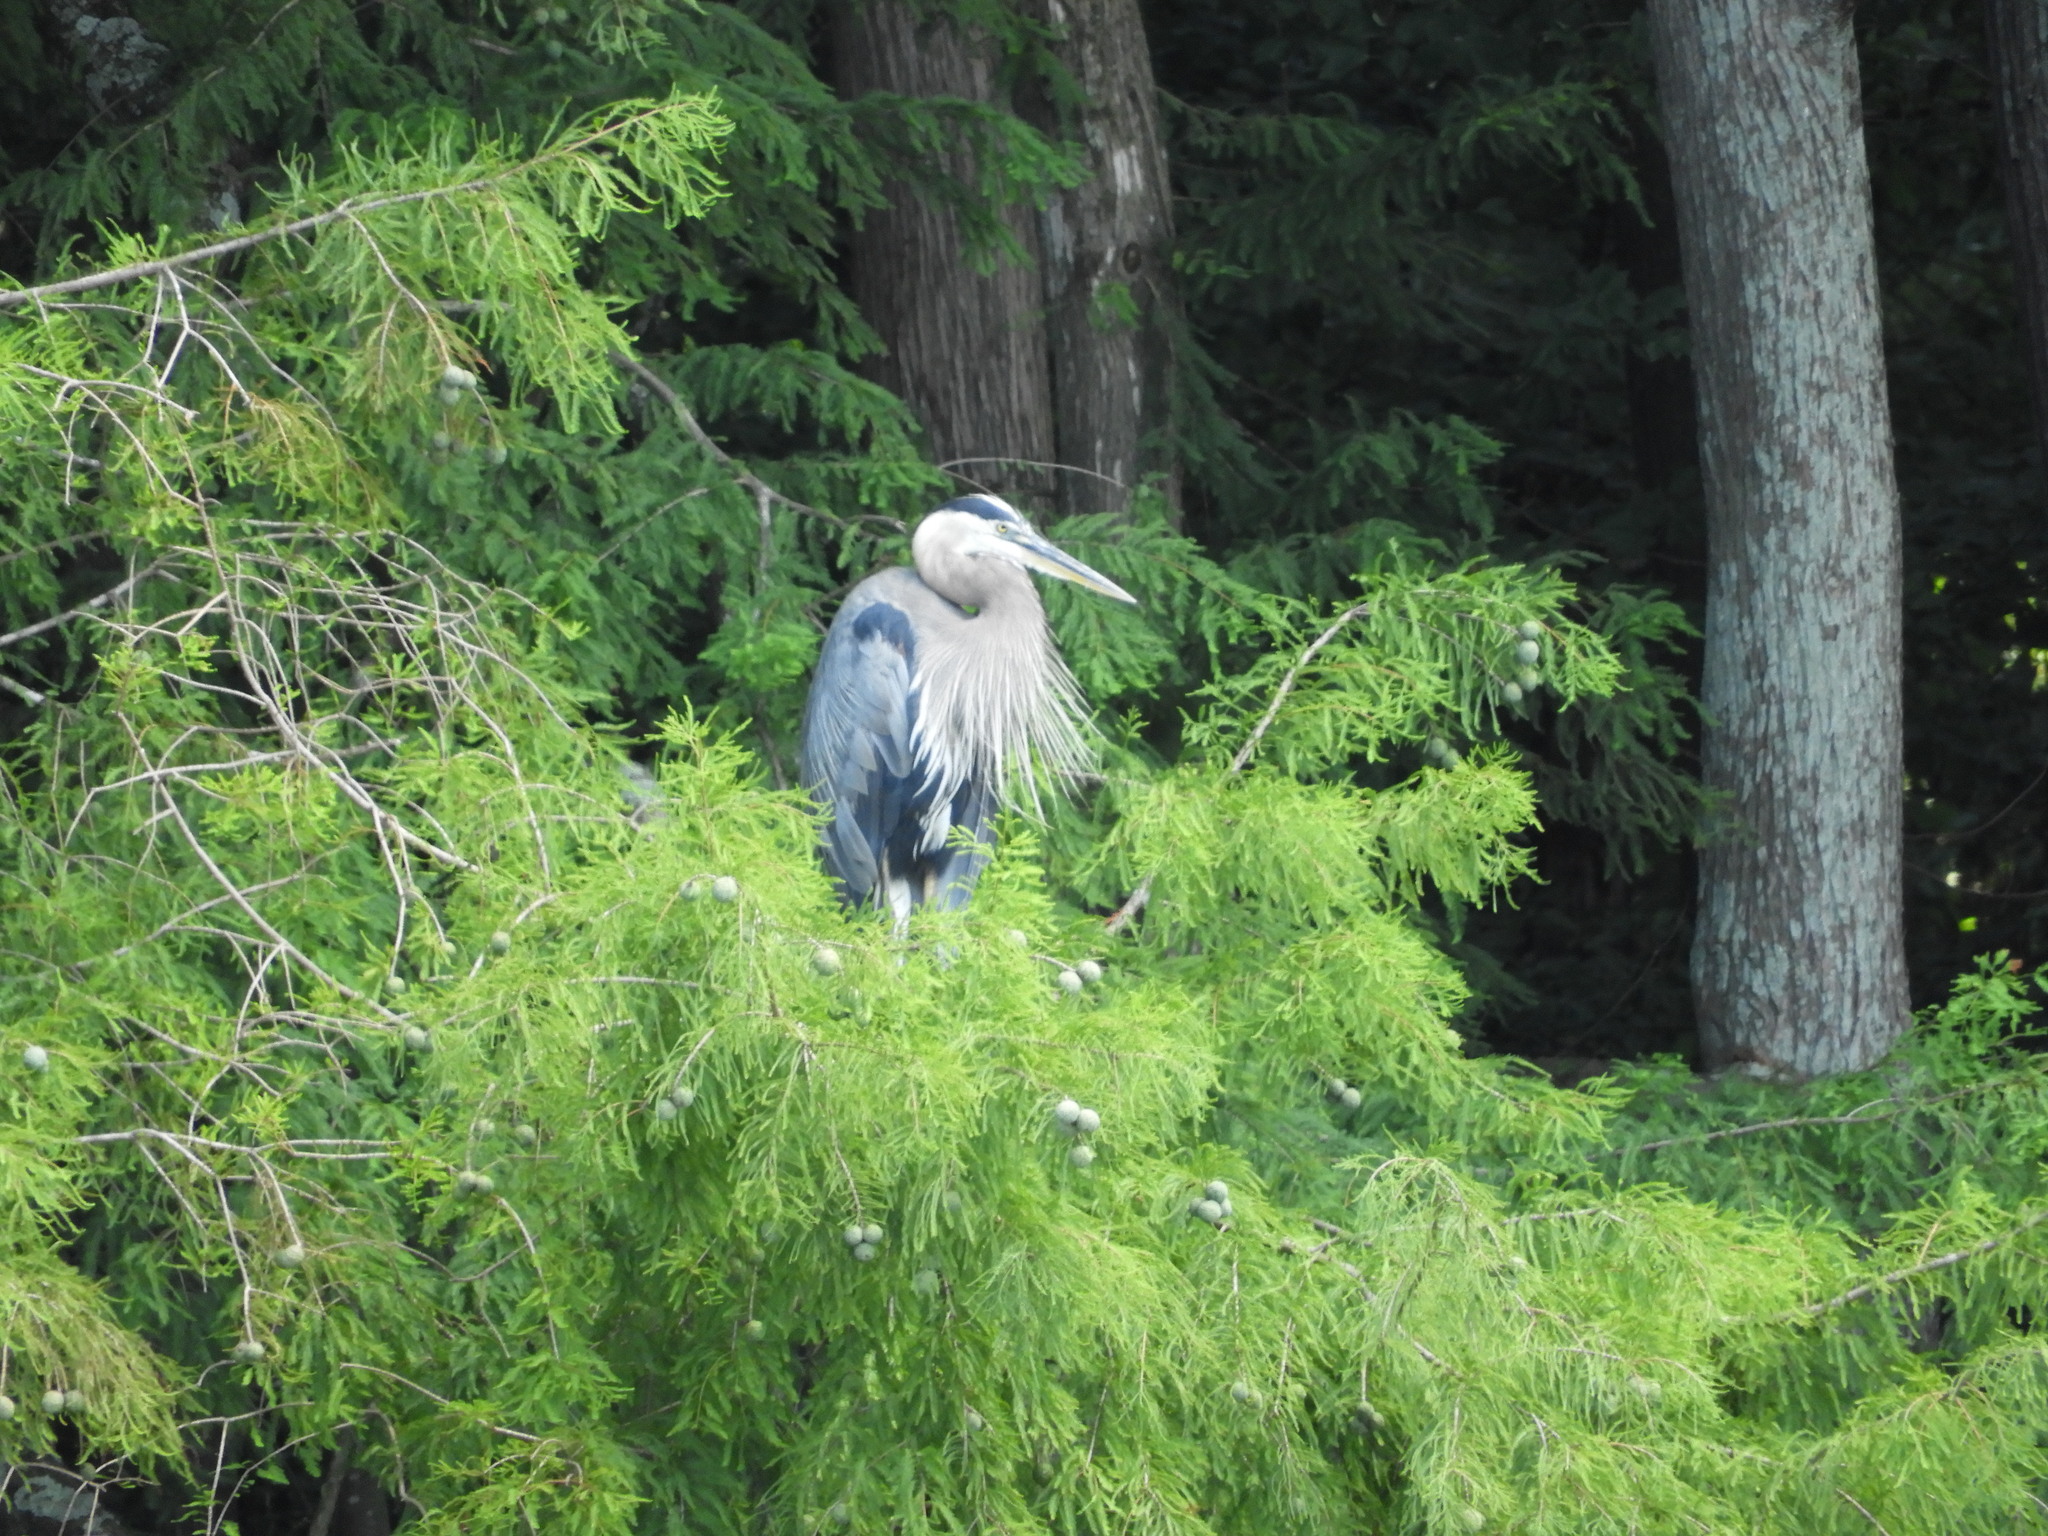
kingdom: Animalia
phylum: Chordata
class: Aves
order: Pelecaniformes
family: Ardeidae
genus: Ardea
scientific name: Ardea herodias
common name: Great blue heron
